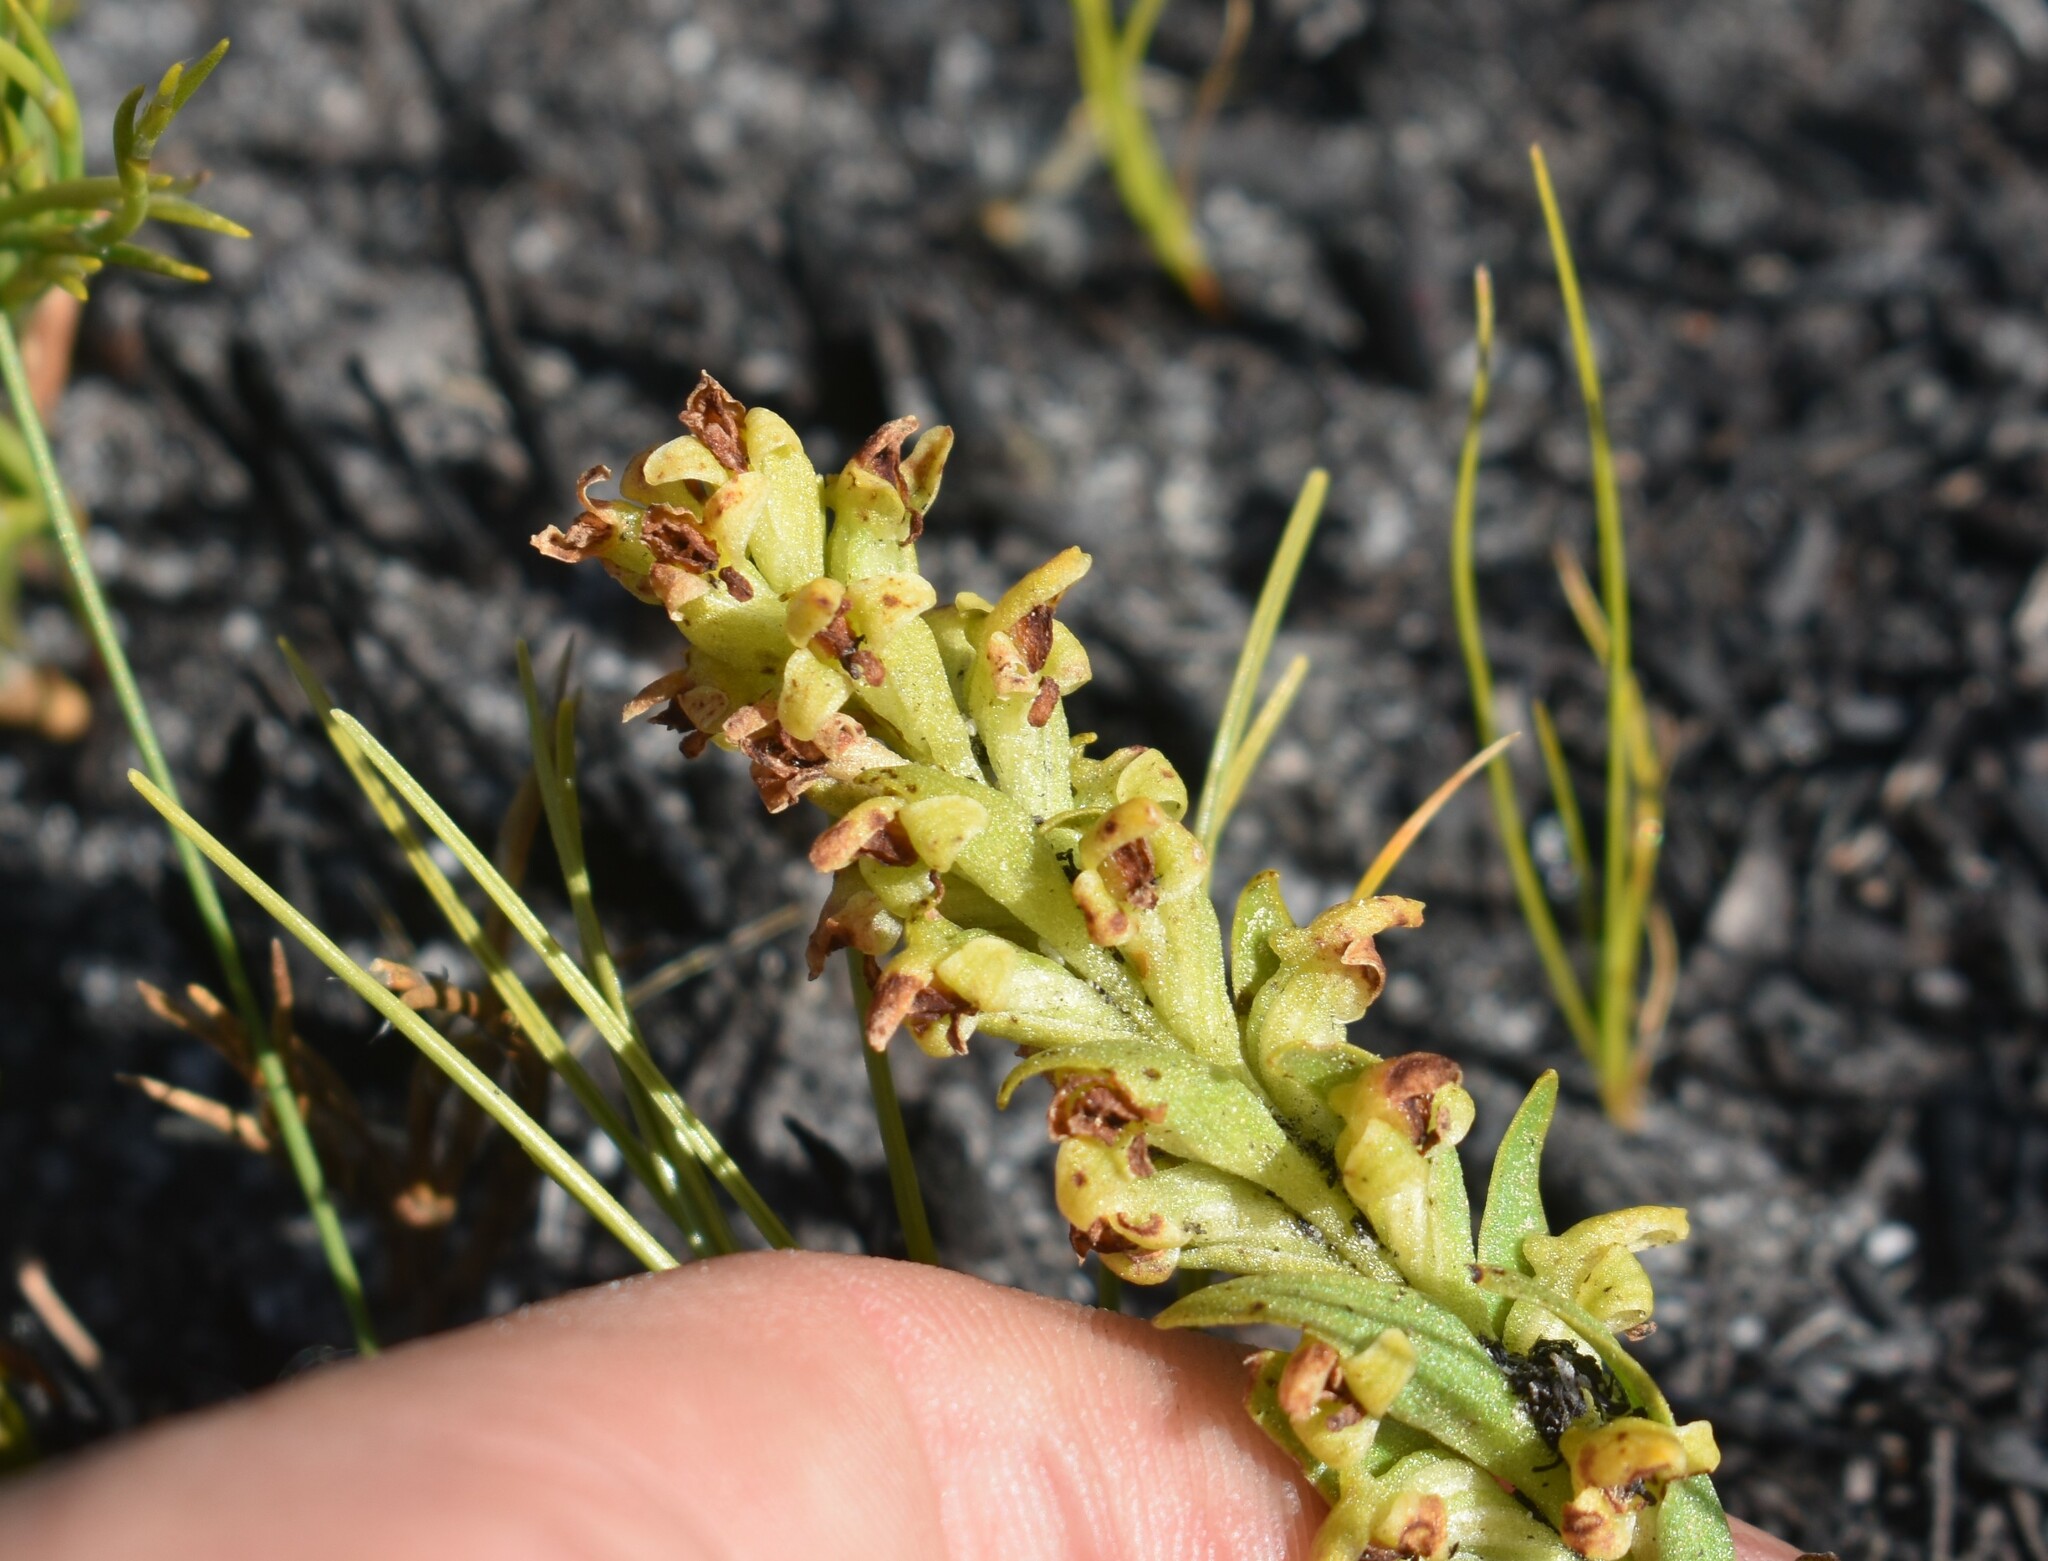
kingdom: Plantae
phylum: Tracheophyta
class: Liliopsida
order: Asparagales
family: Orchidaceae
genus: Disa
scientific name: Disa cylindrica
